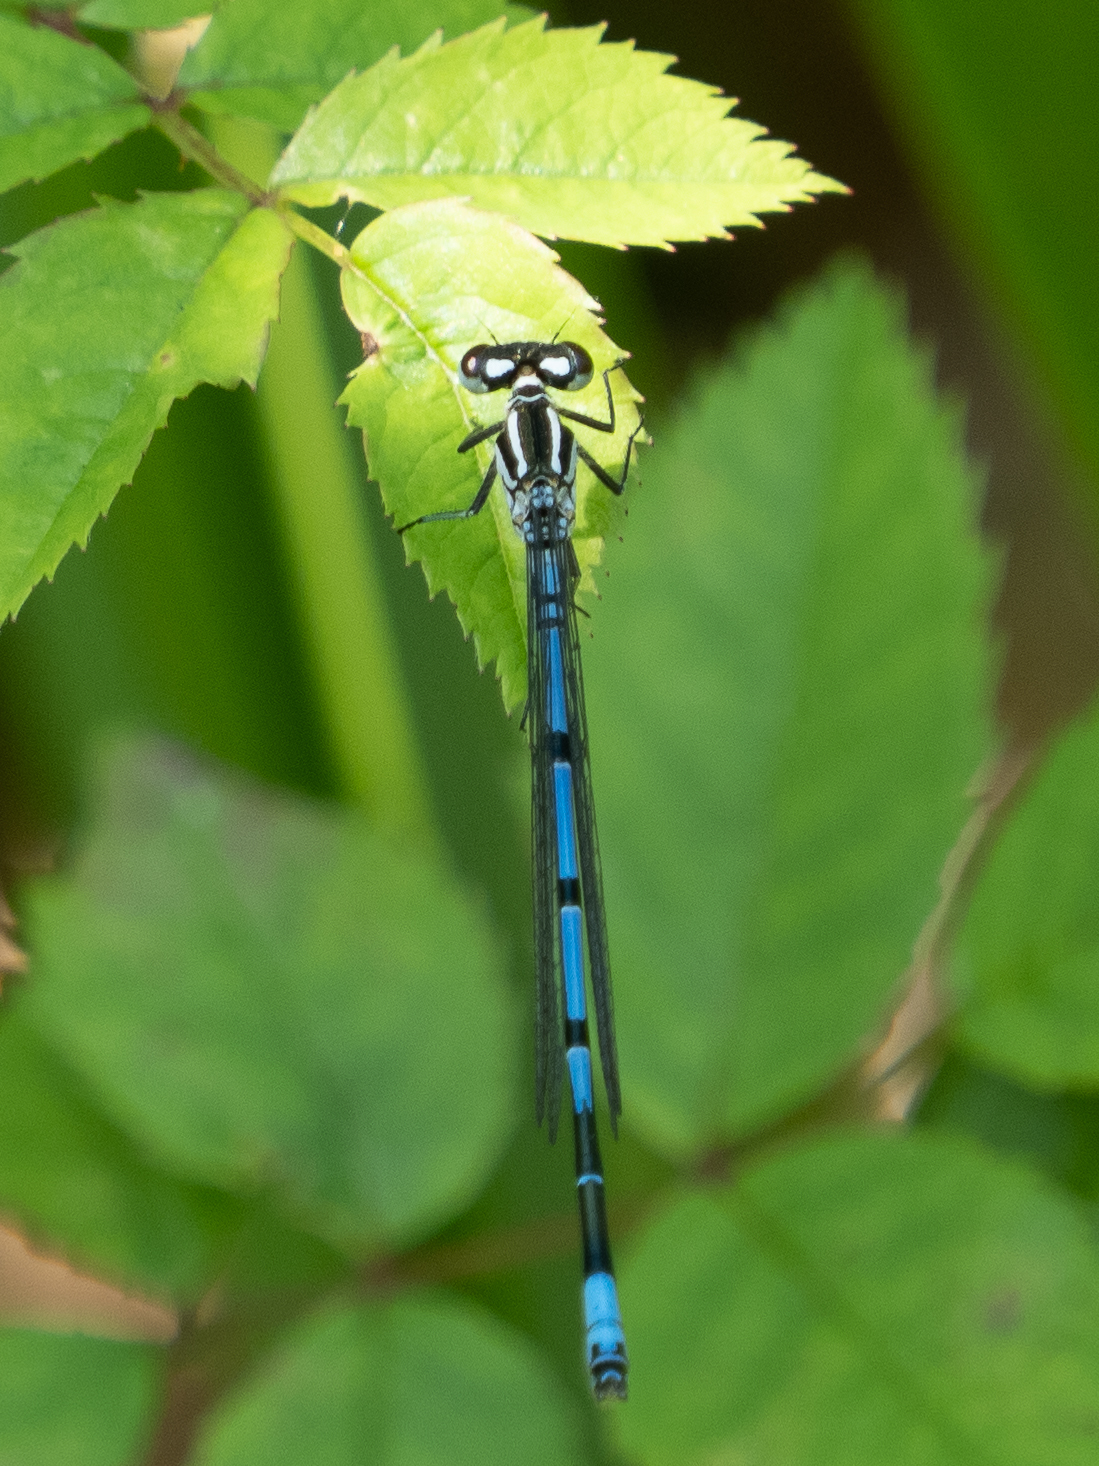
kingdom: Animalia
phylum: Arthropoda
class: Insecta
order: Odonata
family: Coenagrionidae
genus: Coenagrion
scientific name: Coenagrion puella
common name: Azure damselfly
